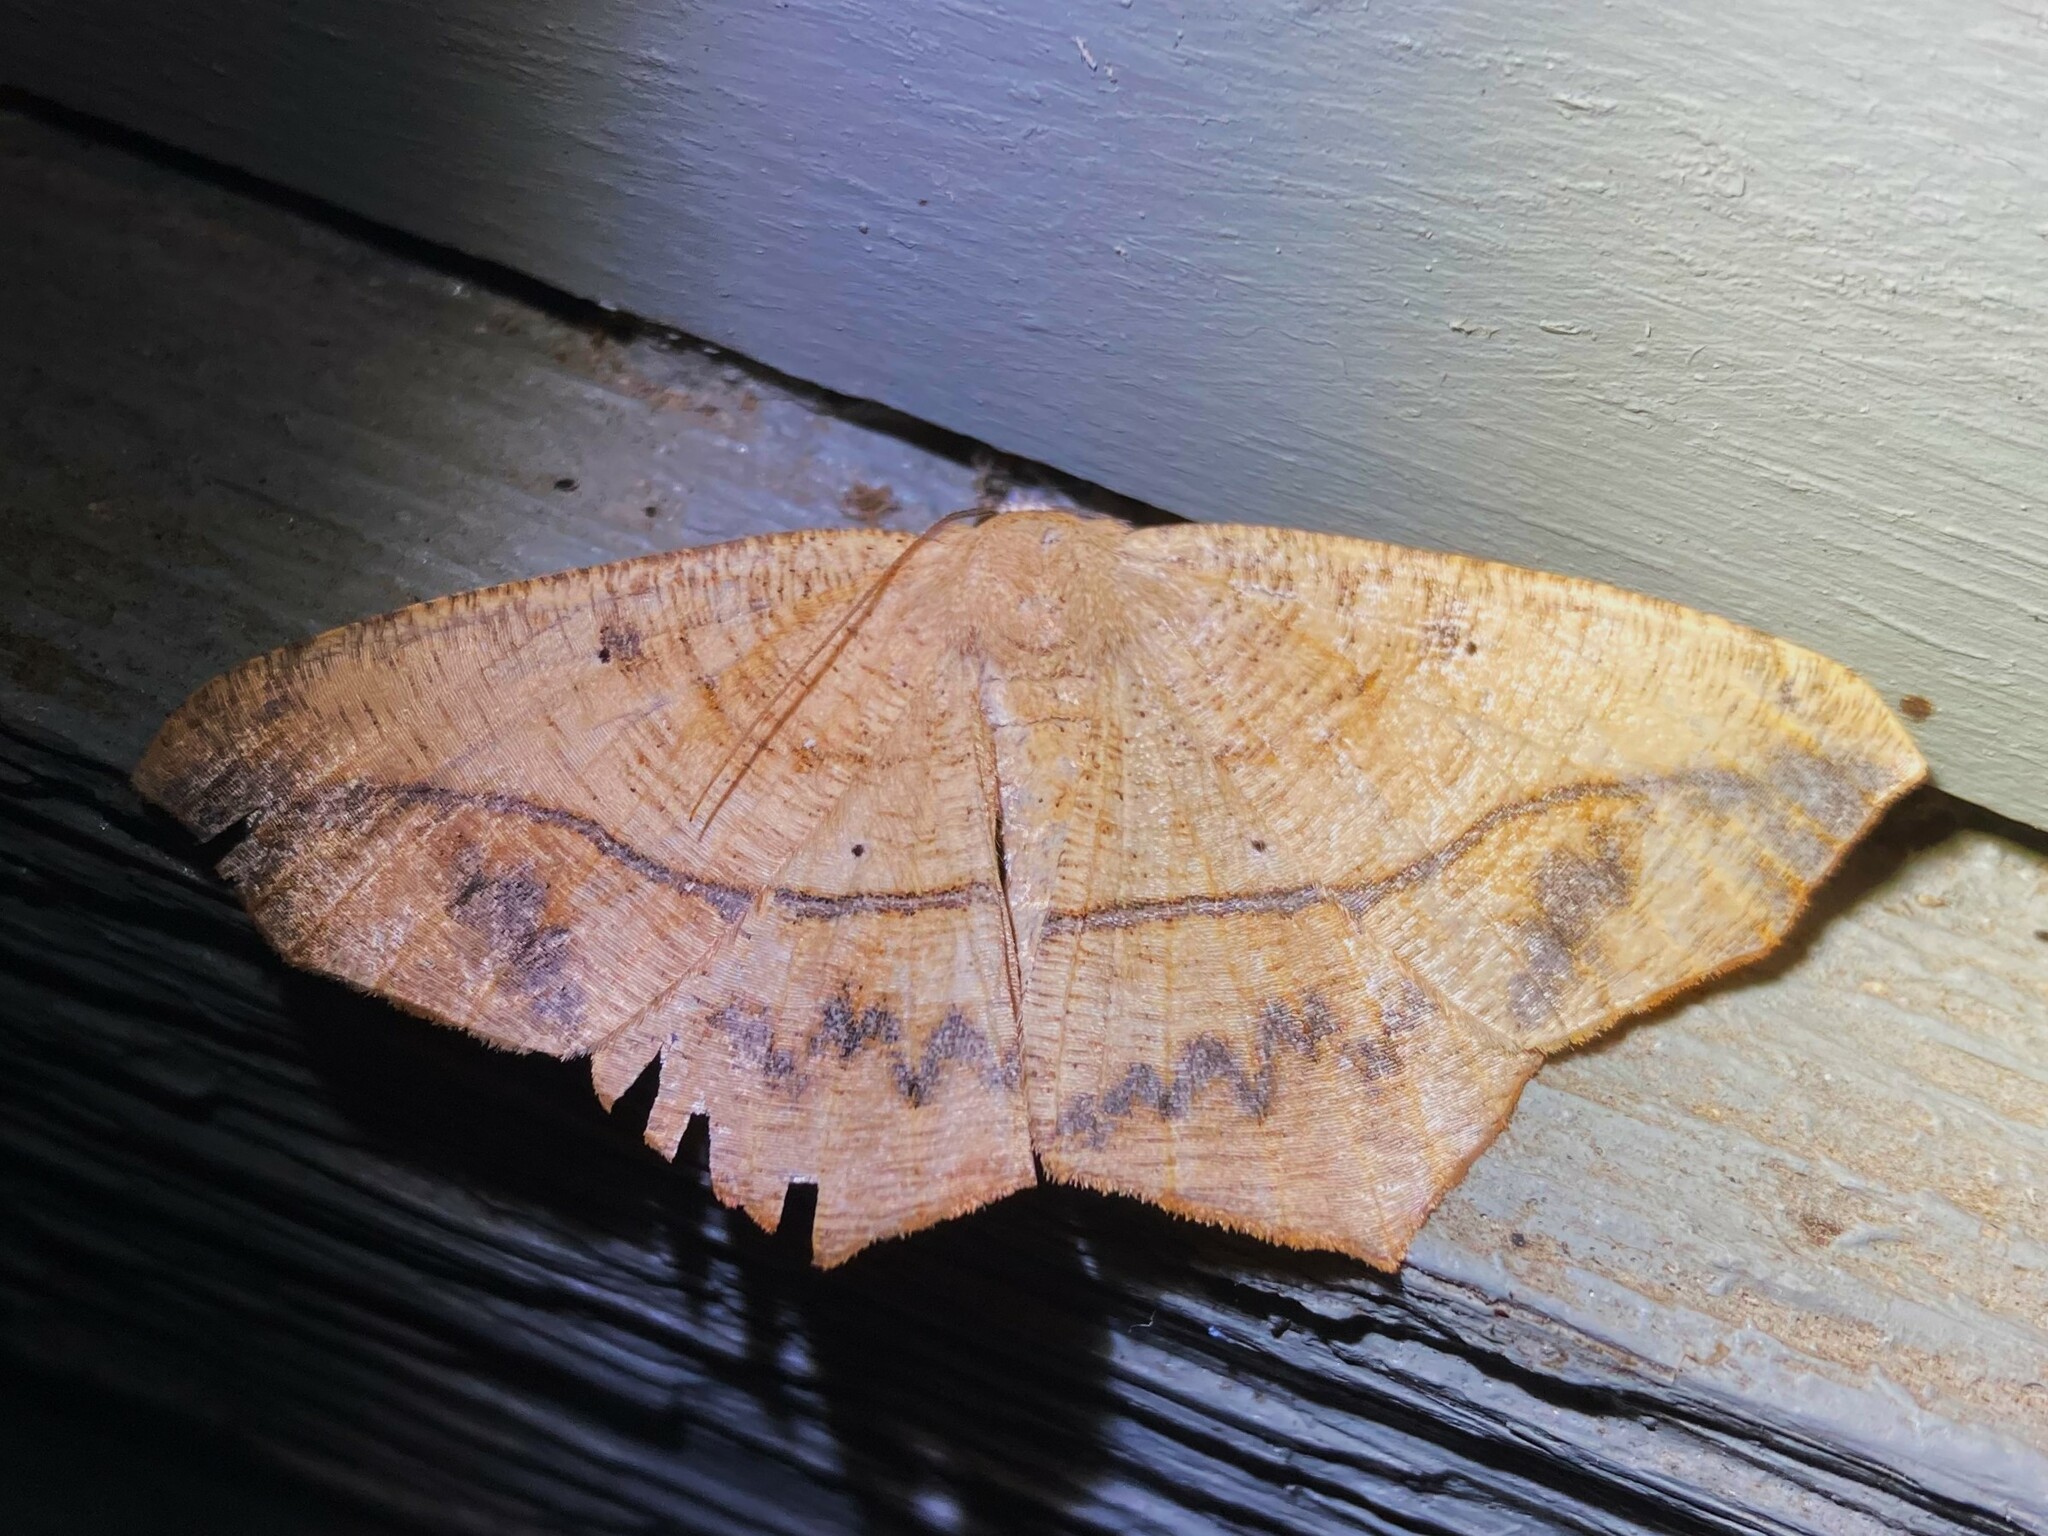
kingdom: Animalia
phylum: Arthropoda
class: Insecta
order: Lepidoptera
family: Geometridae
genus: Prochoerodes
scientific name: Prochoerodes lineola
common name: Large maple spanworm
